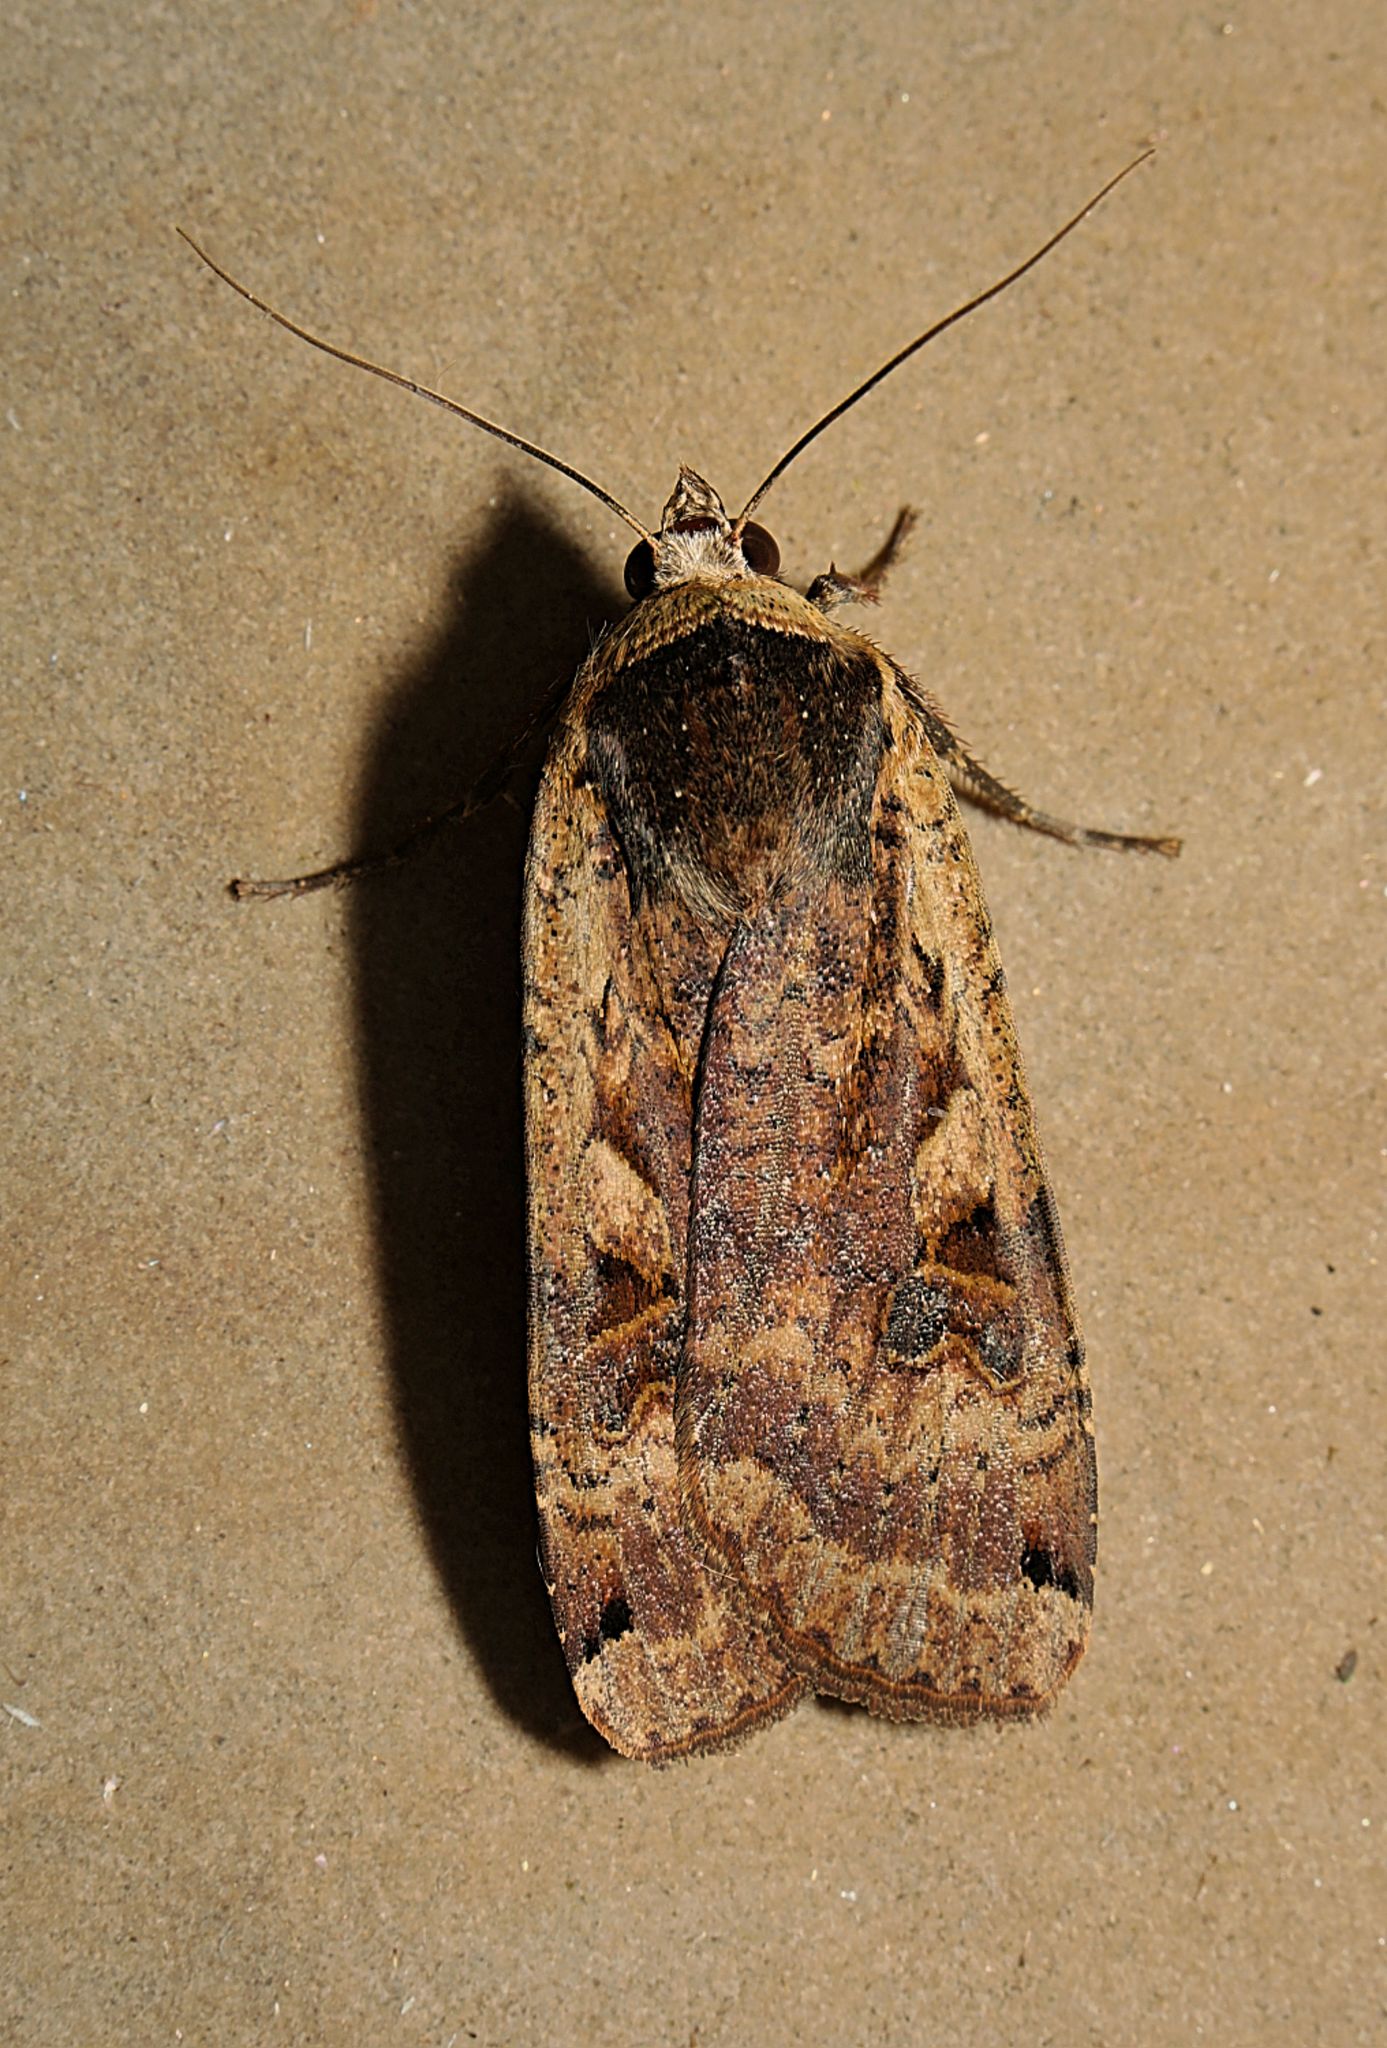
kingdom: Animalia
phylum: Arthropoda
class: Insecta
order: Lepidoptera
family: Noctuidae
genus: Noctua
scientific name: Noctua pronuba
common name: Large yellow underwing
